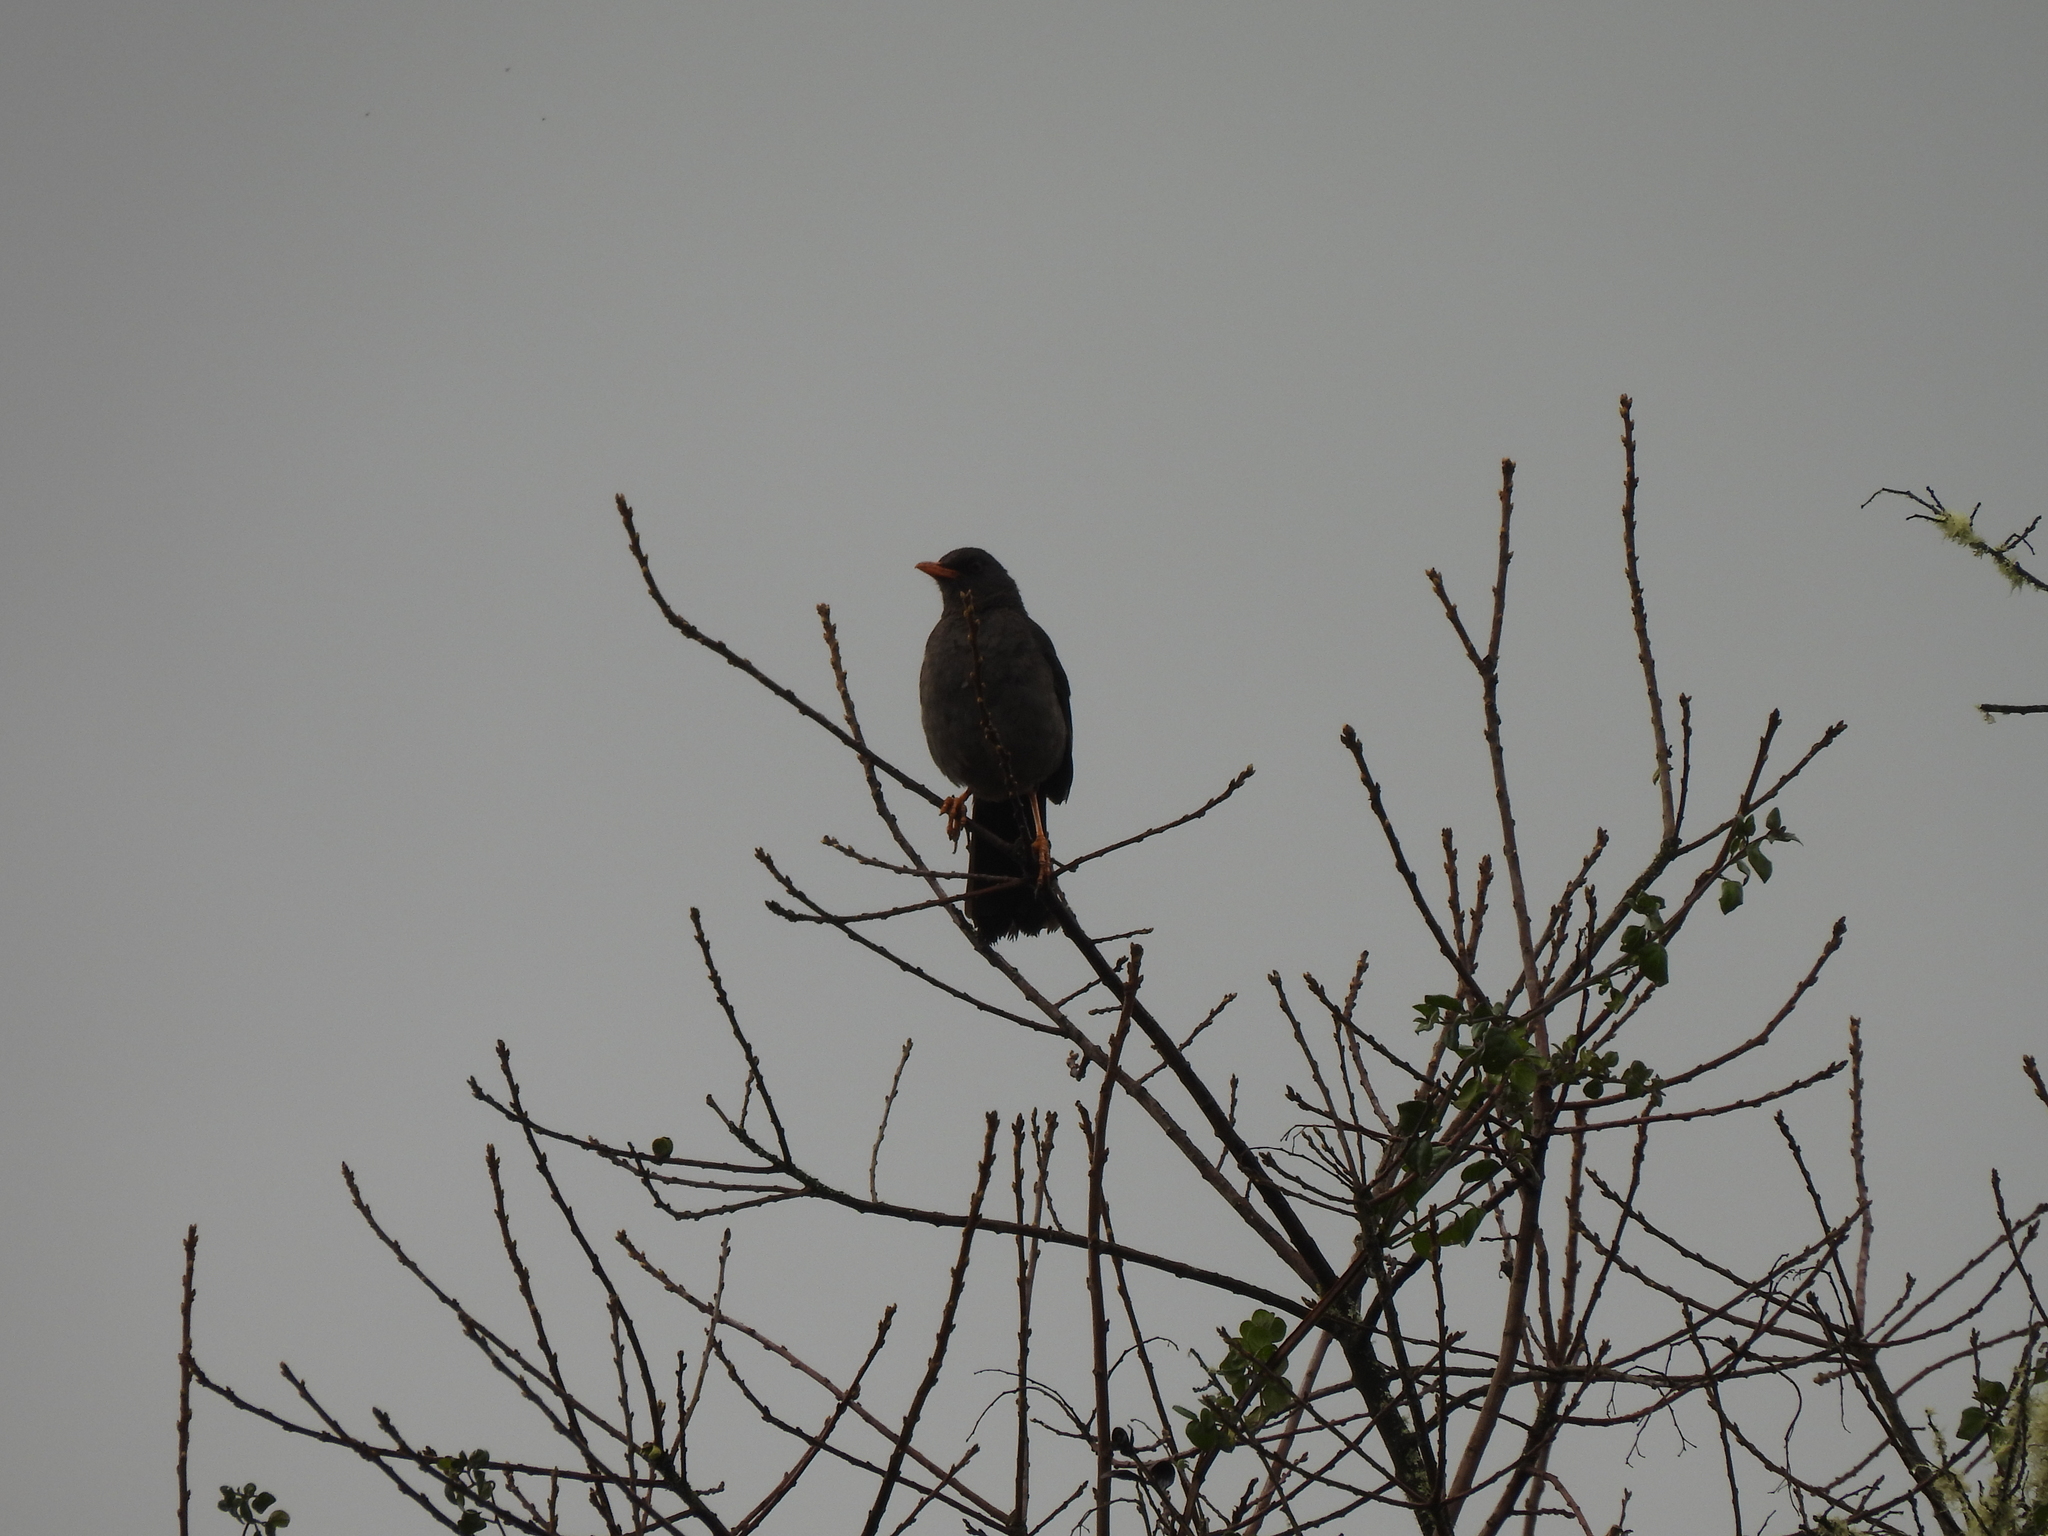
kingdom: Animalia
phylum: Chordata
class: Aves
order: Passeriformes
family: Turdidae
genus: Turdus
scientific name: Turdus fuscater
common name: Great thrush
